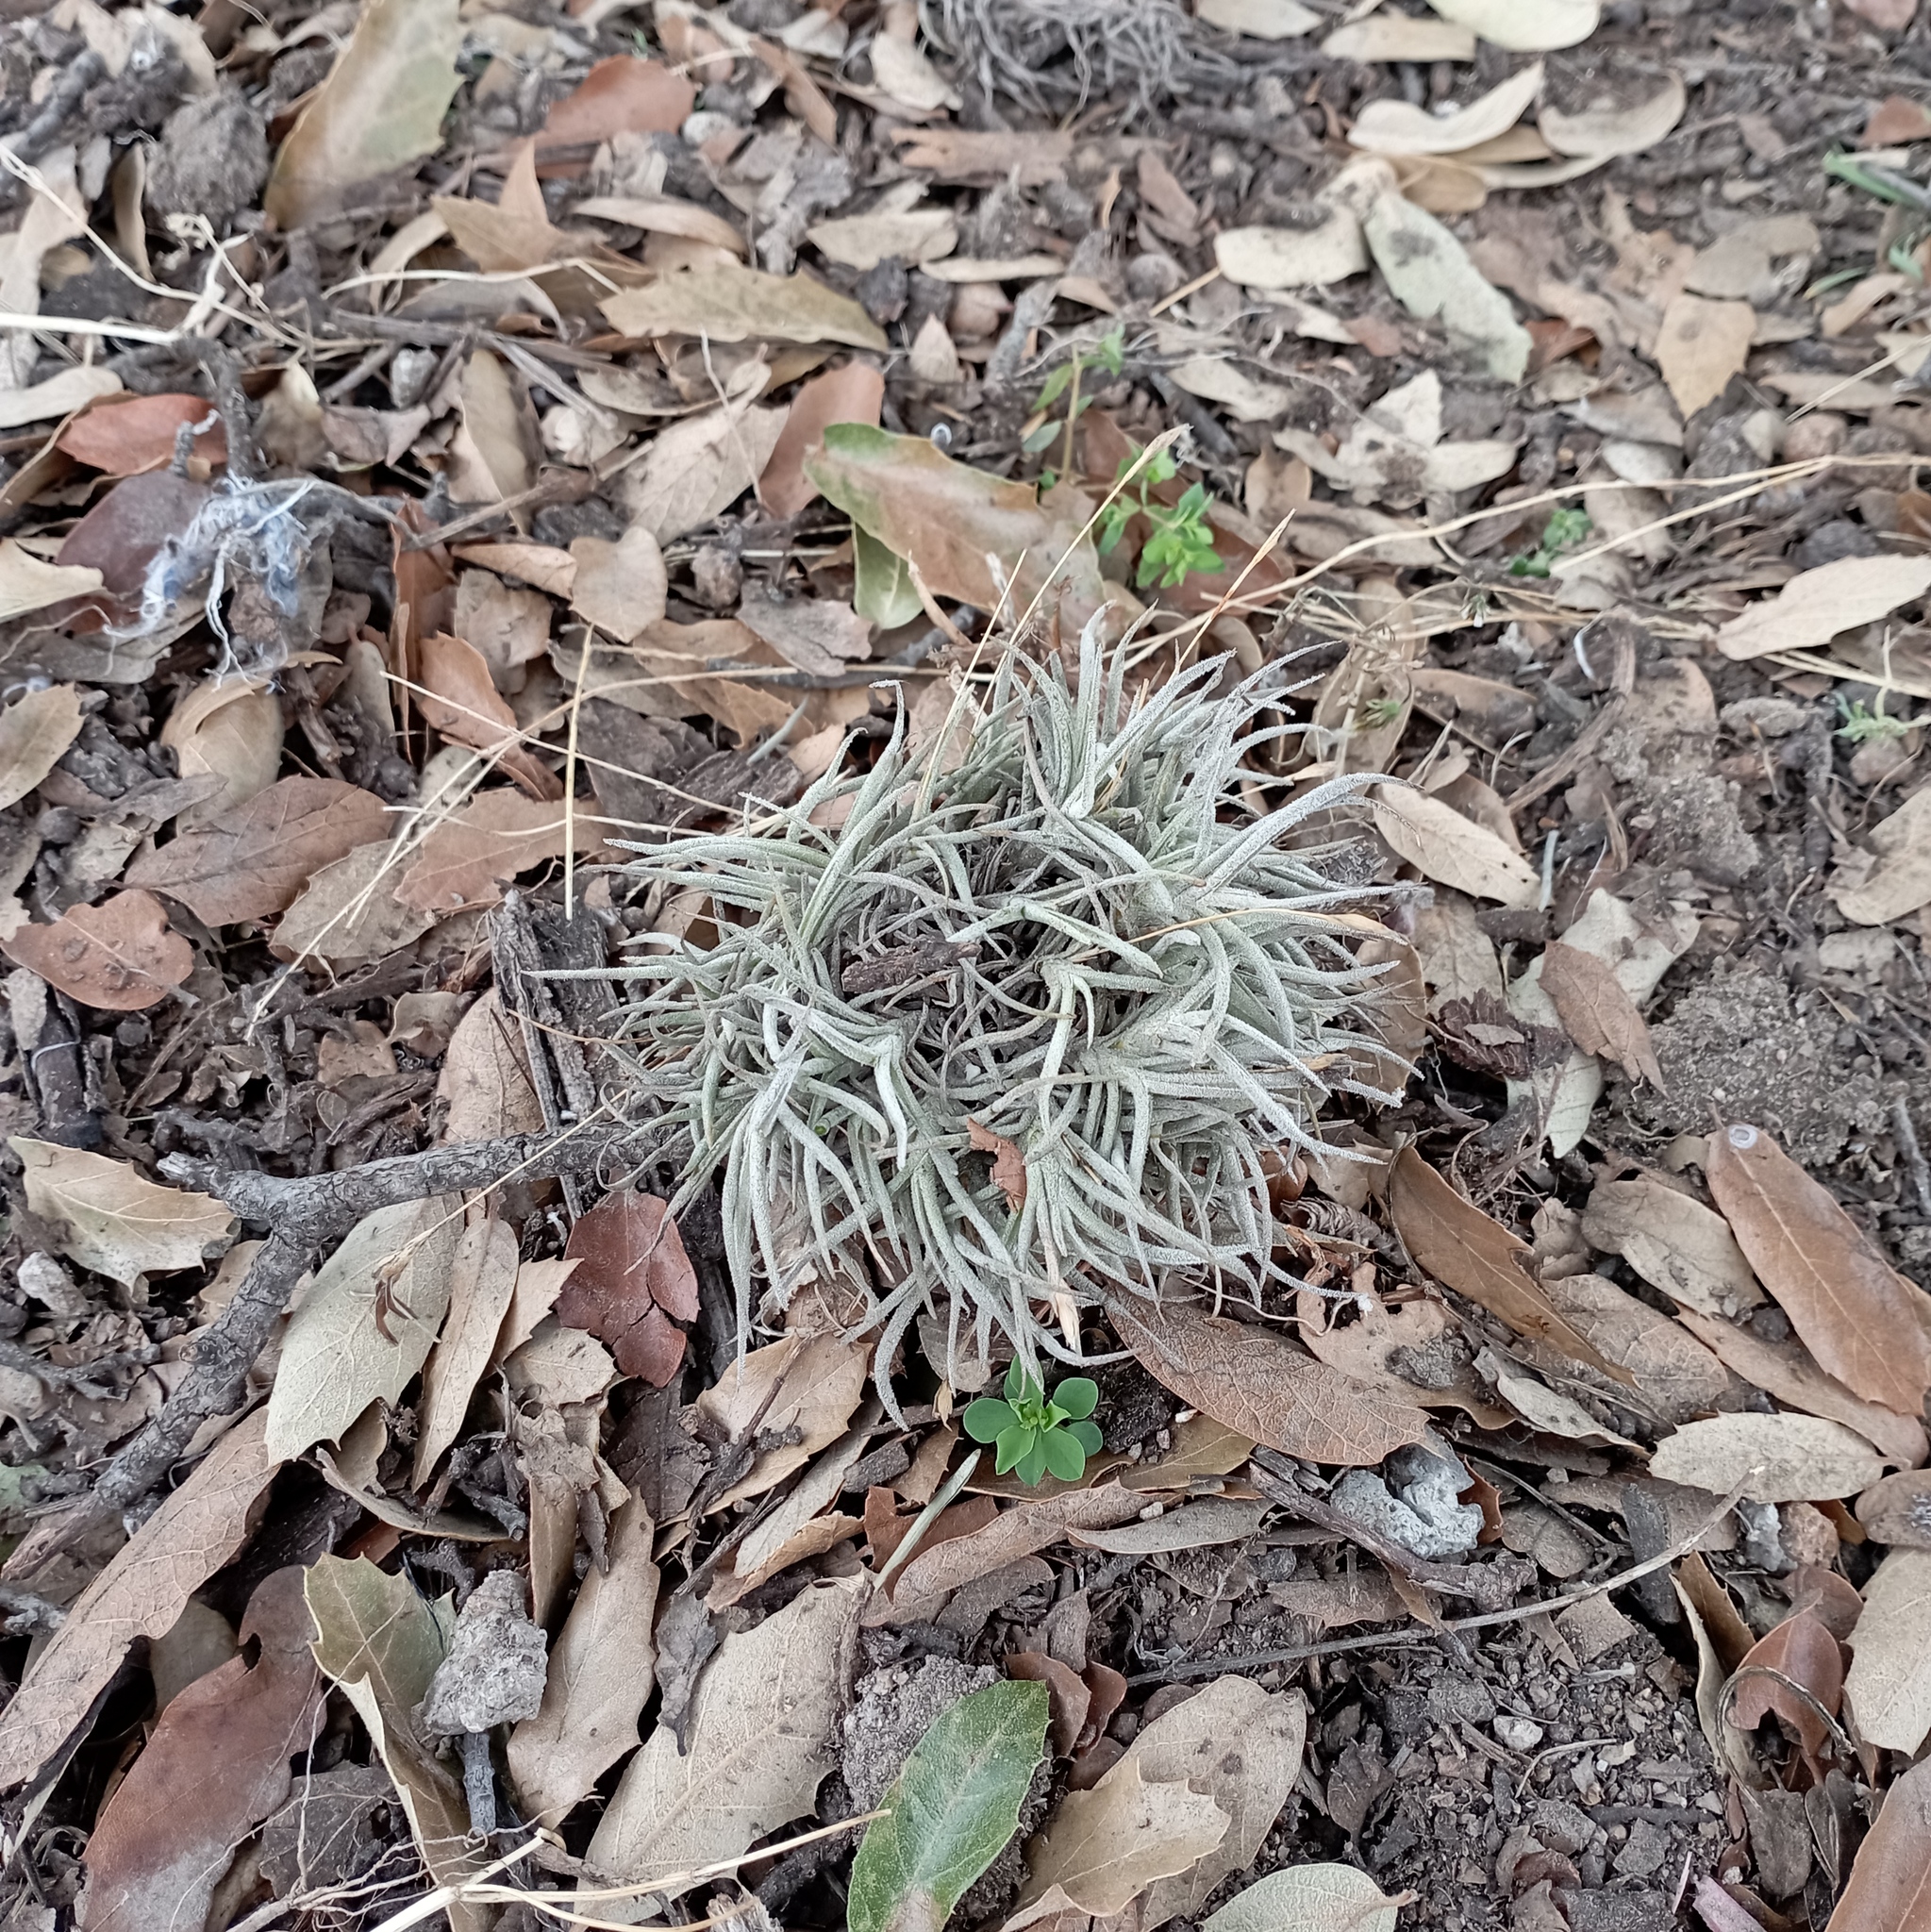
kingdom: Plantae
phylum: Tracheophyta
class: Liliopsida
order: Poales
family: Bromeliaceae
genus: Tillandsia
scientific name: Tillandsia recurvata
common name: Small ballmoss
